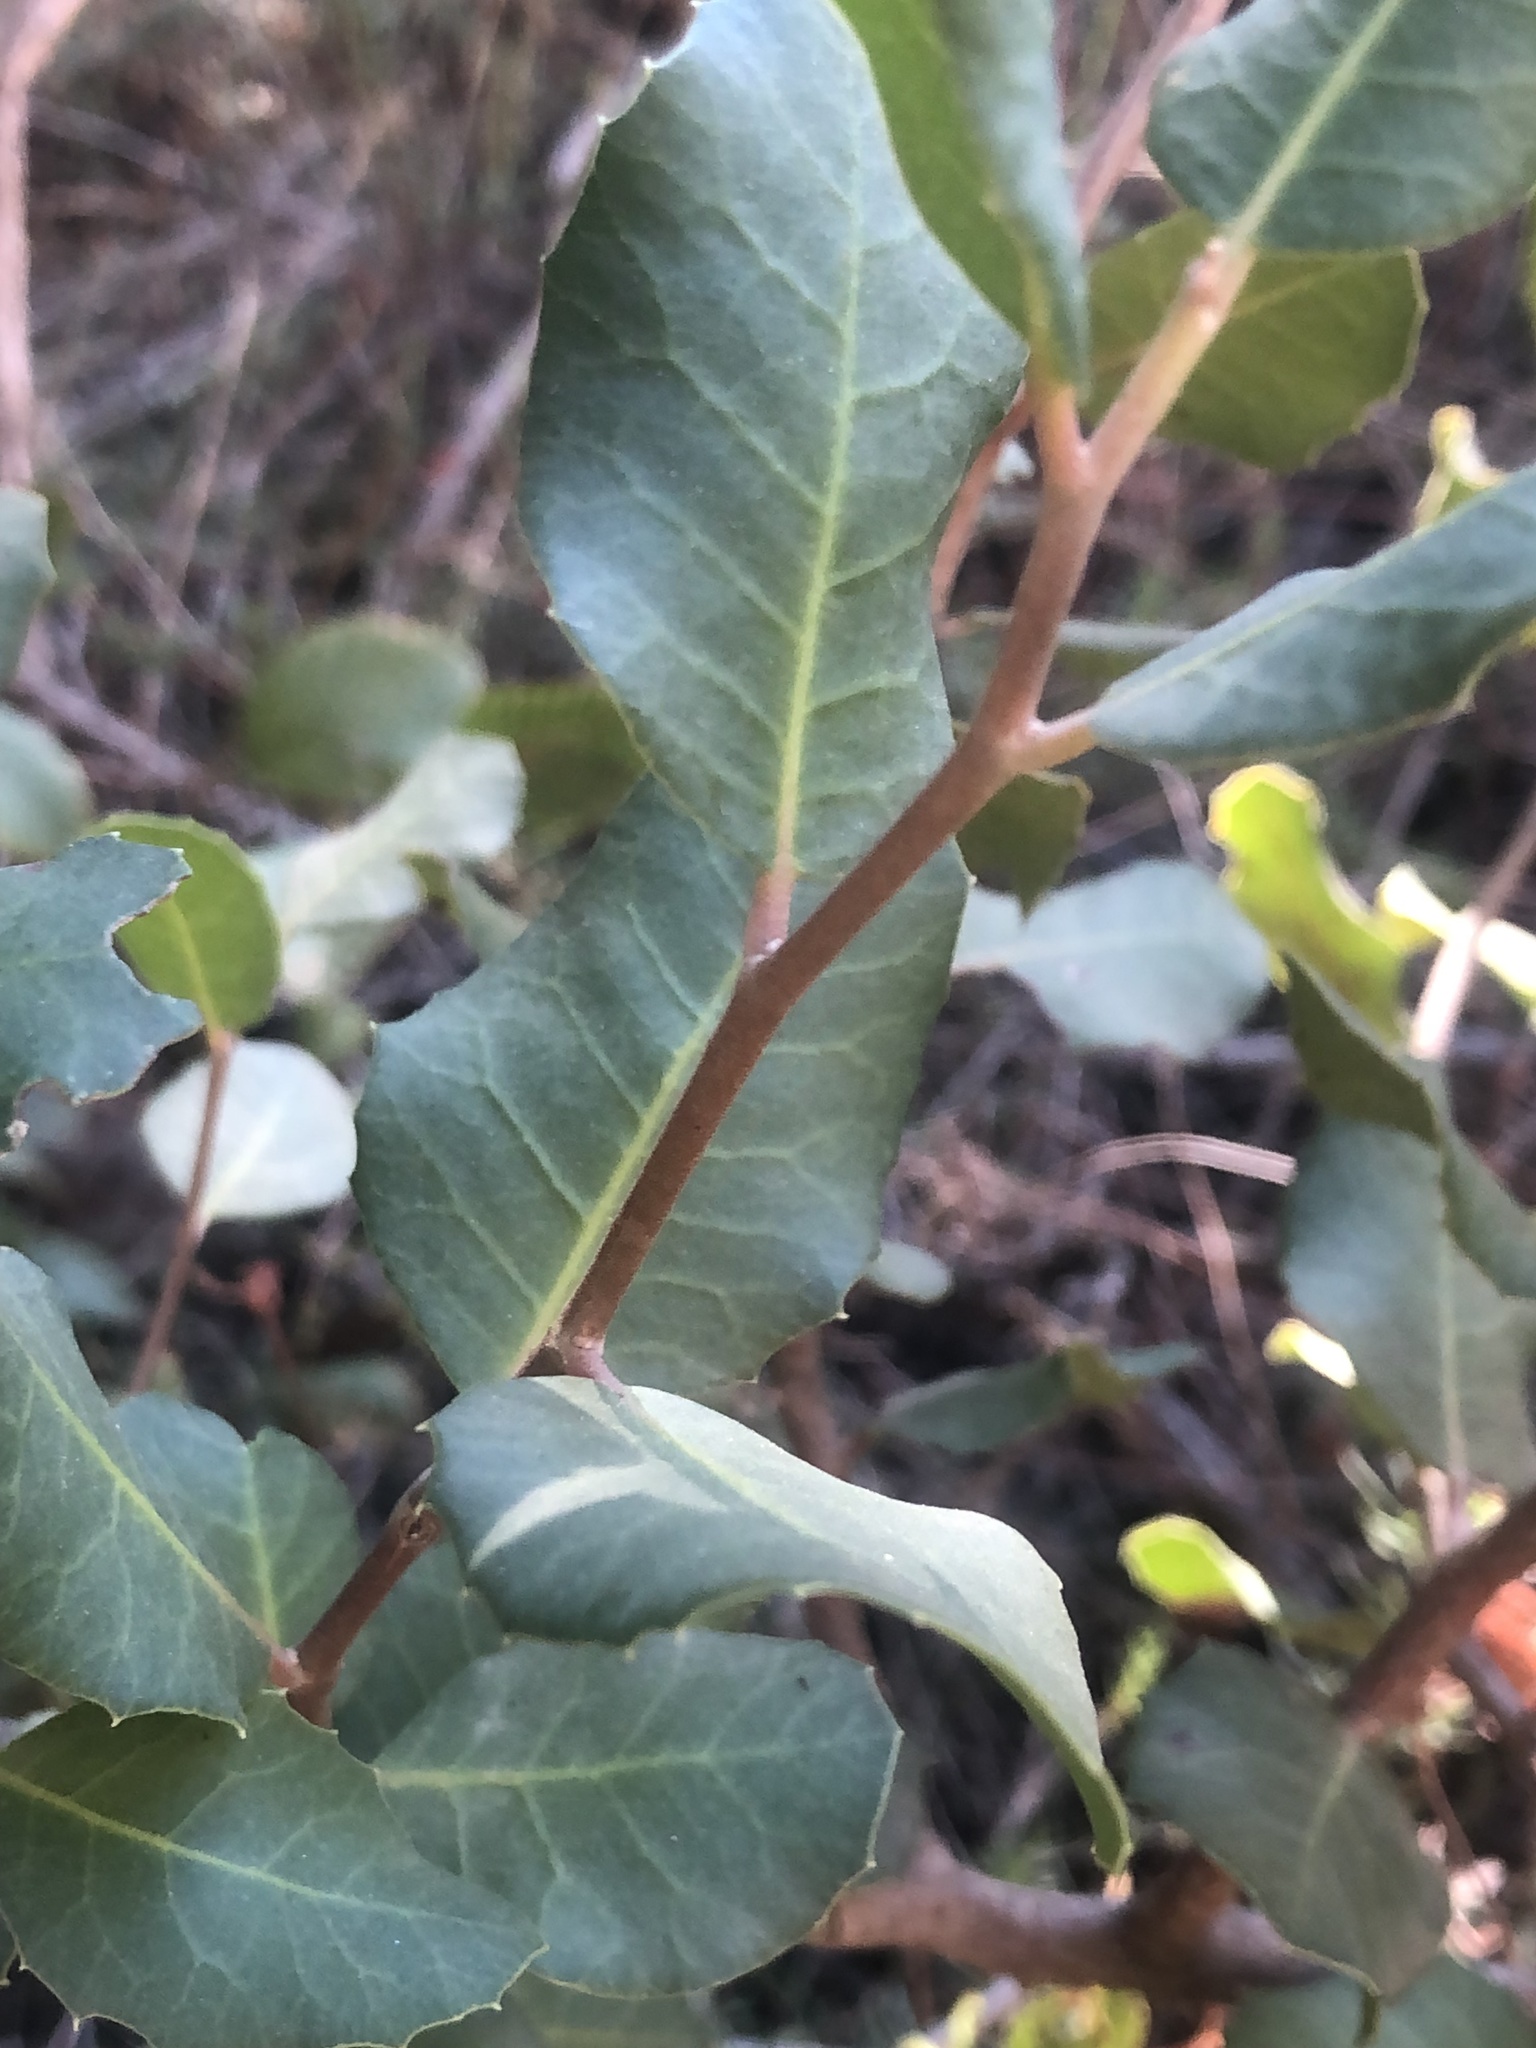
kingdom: Plantae
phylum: Tracheophyta
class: Magnoliopsida
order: Sapindales
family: Anacardiaceae
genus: Rhus
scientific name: Rhus integrifolia
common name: Lemonade sumac
